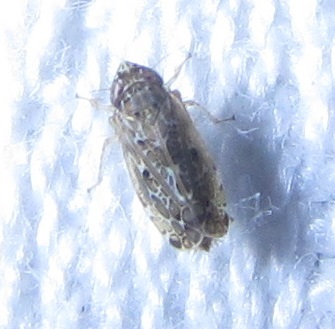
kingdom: Animalia
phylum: Arthropoda
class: Insecta
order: Hemiptera
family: Cicadellidae
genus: Polyamia
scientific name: Polyamia weedi
